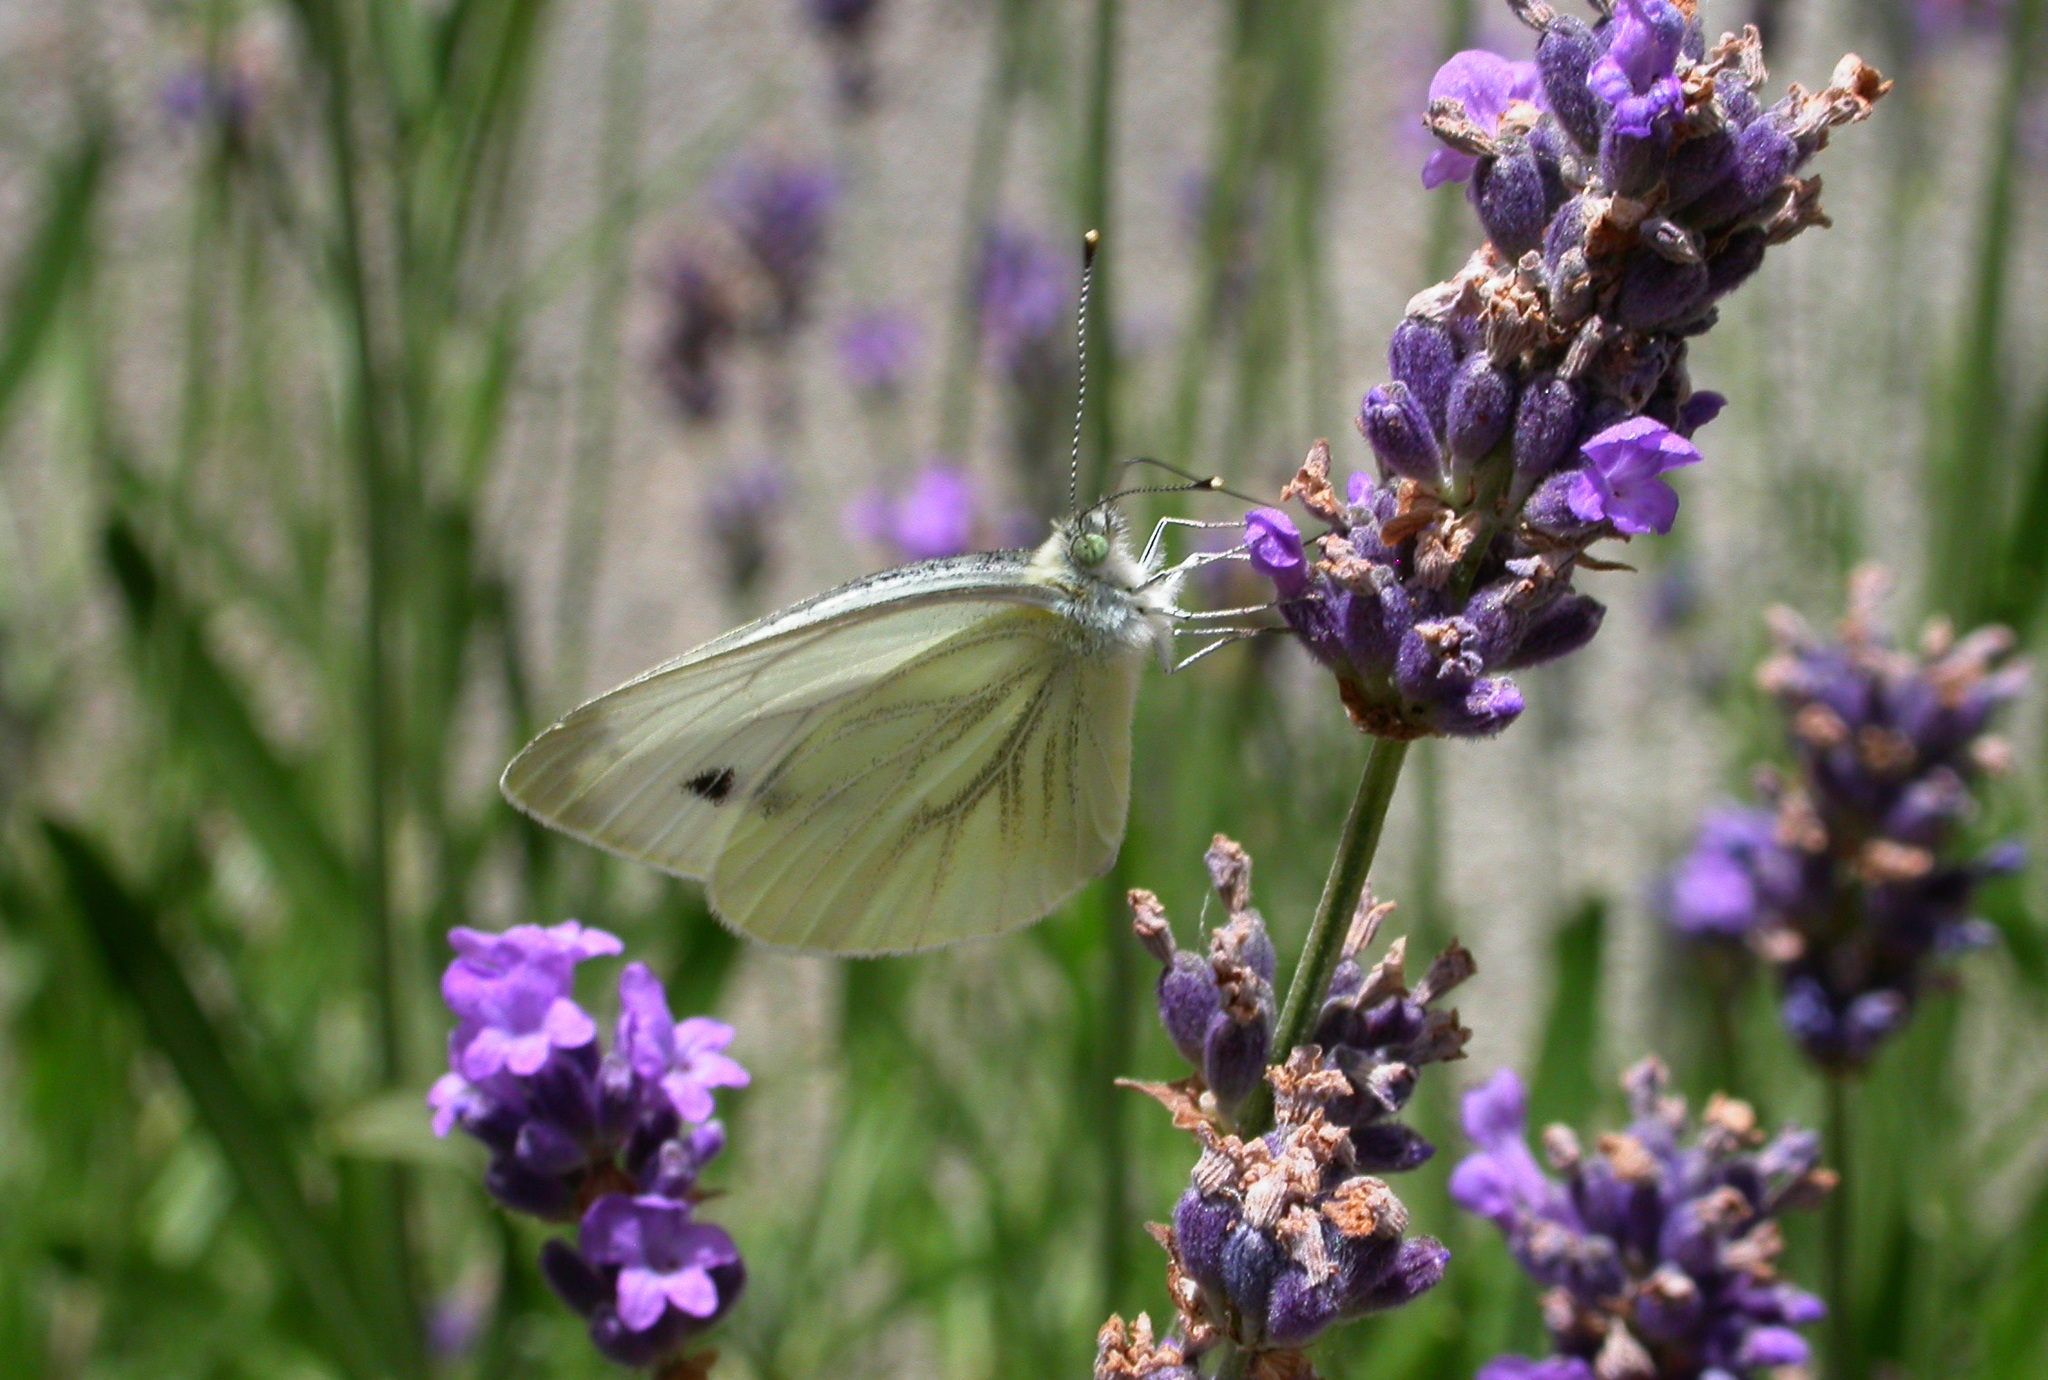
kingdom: Animalia
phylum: Arthropoda
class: Insecta
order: Lepidoptera
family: Pieridae
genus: Pieris
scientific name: Pieris napi
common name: Green-veined white
